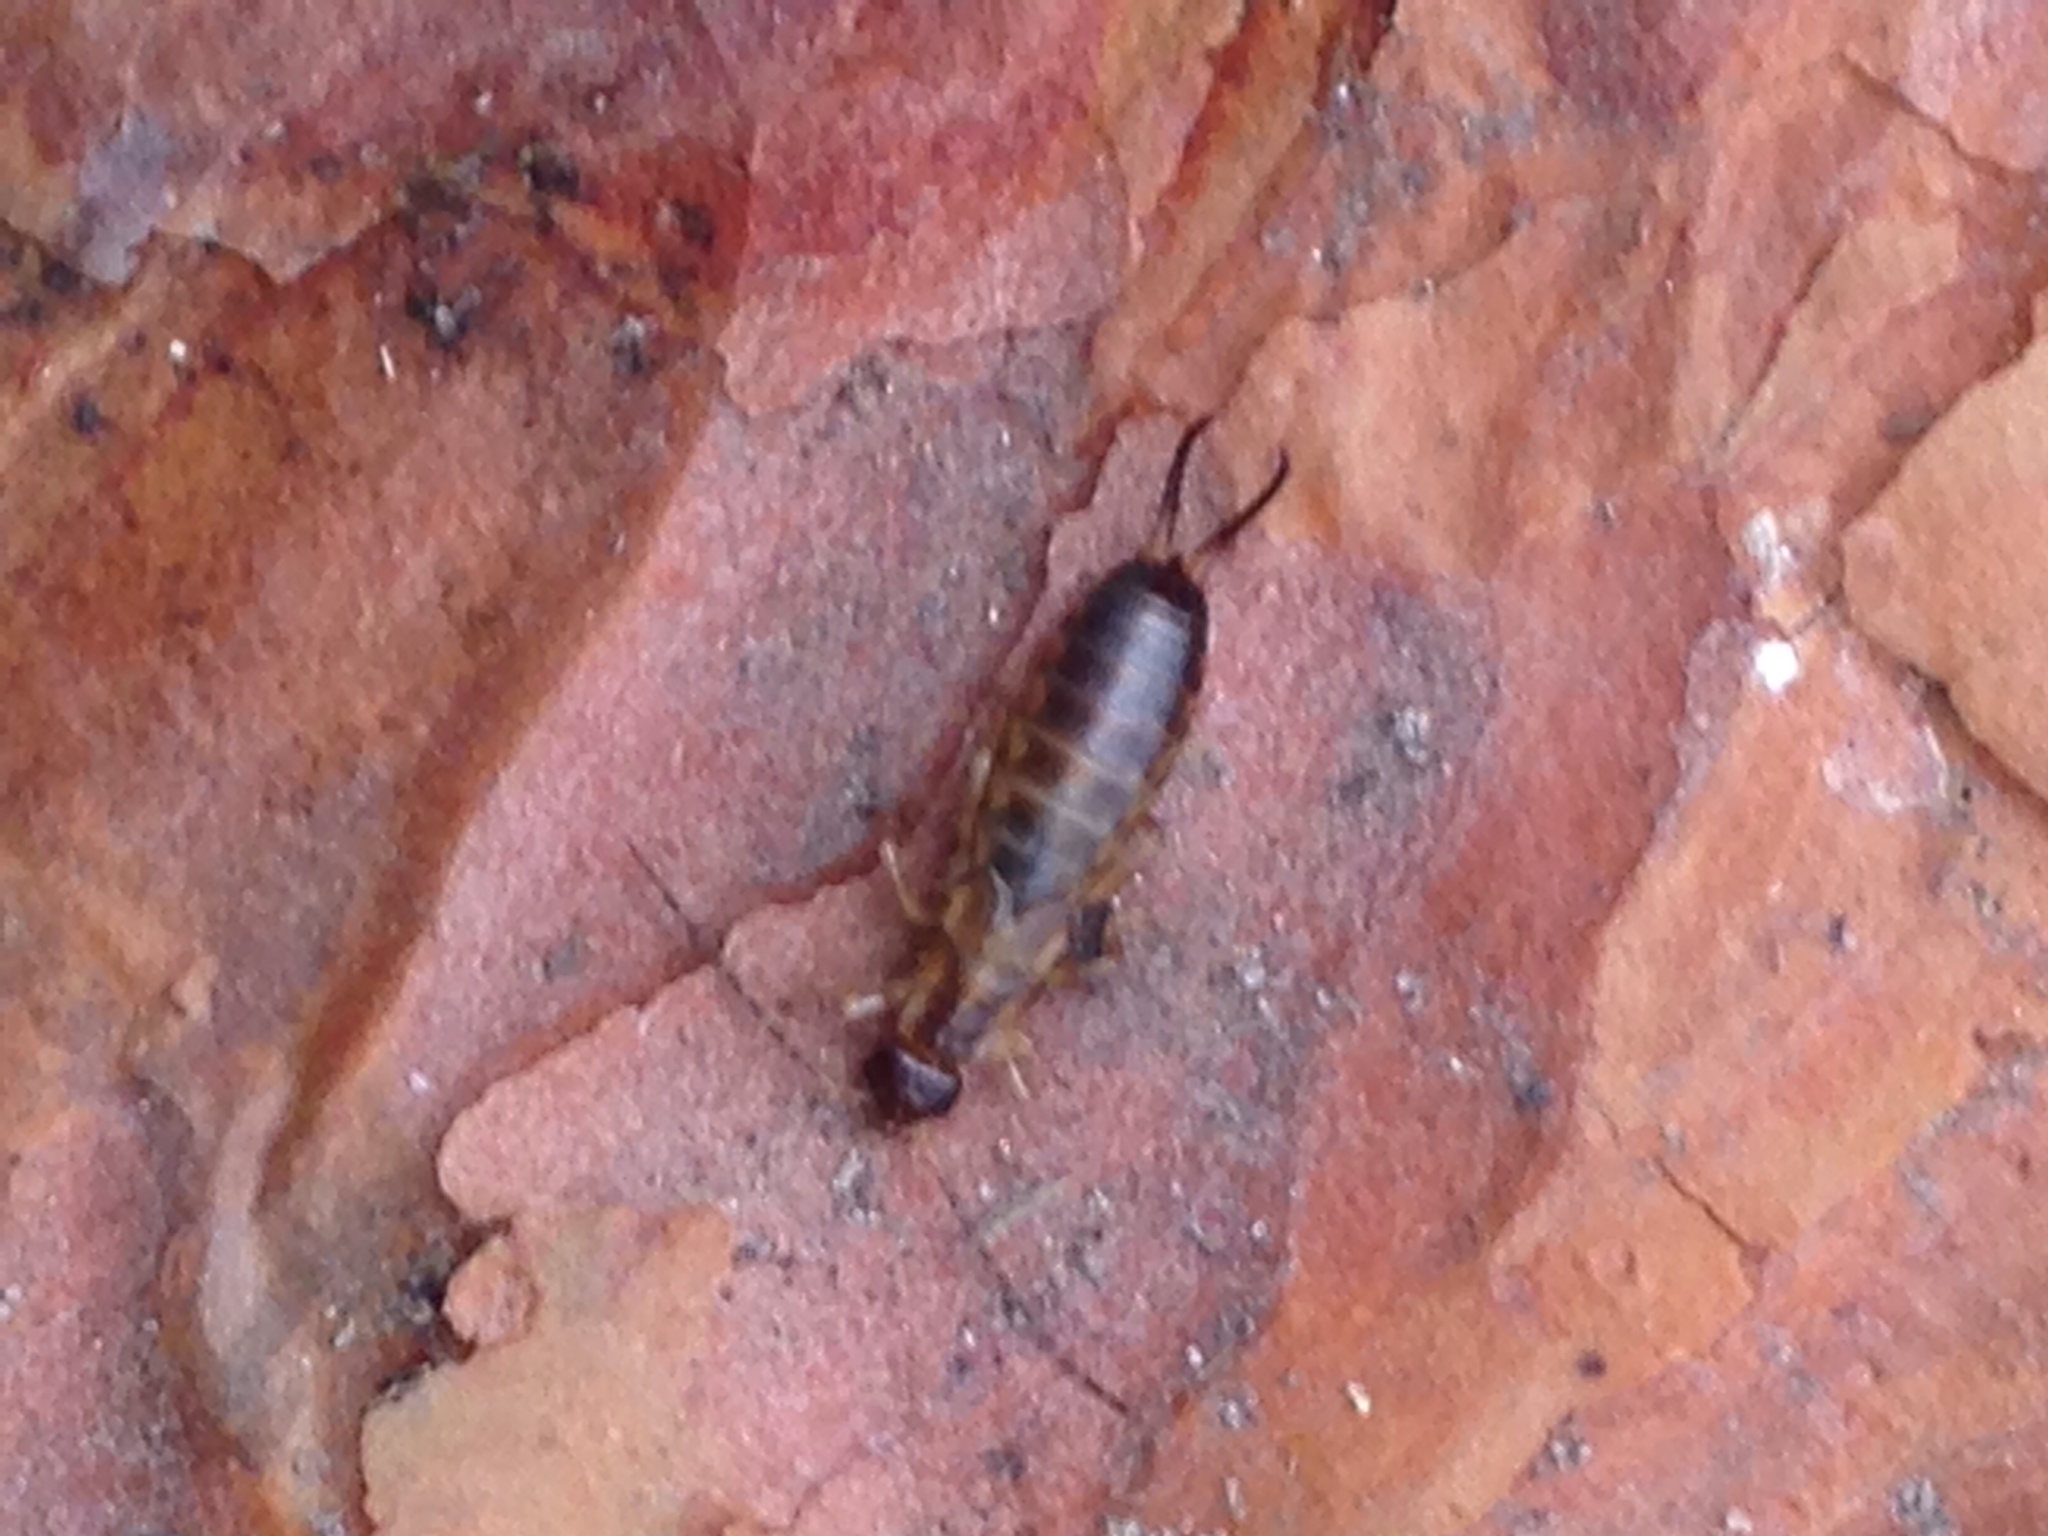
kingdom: Animalia
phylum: Arthropoda
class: Insecta
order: Dermaptera
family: Forficulidae
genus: Forficula
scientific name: Forficula
